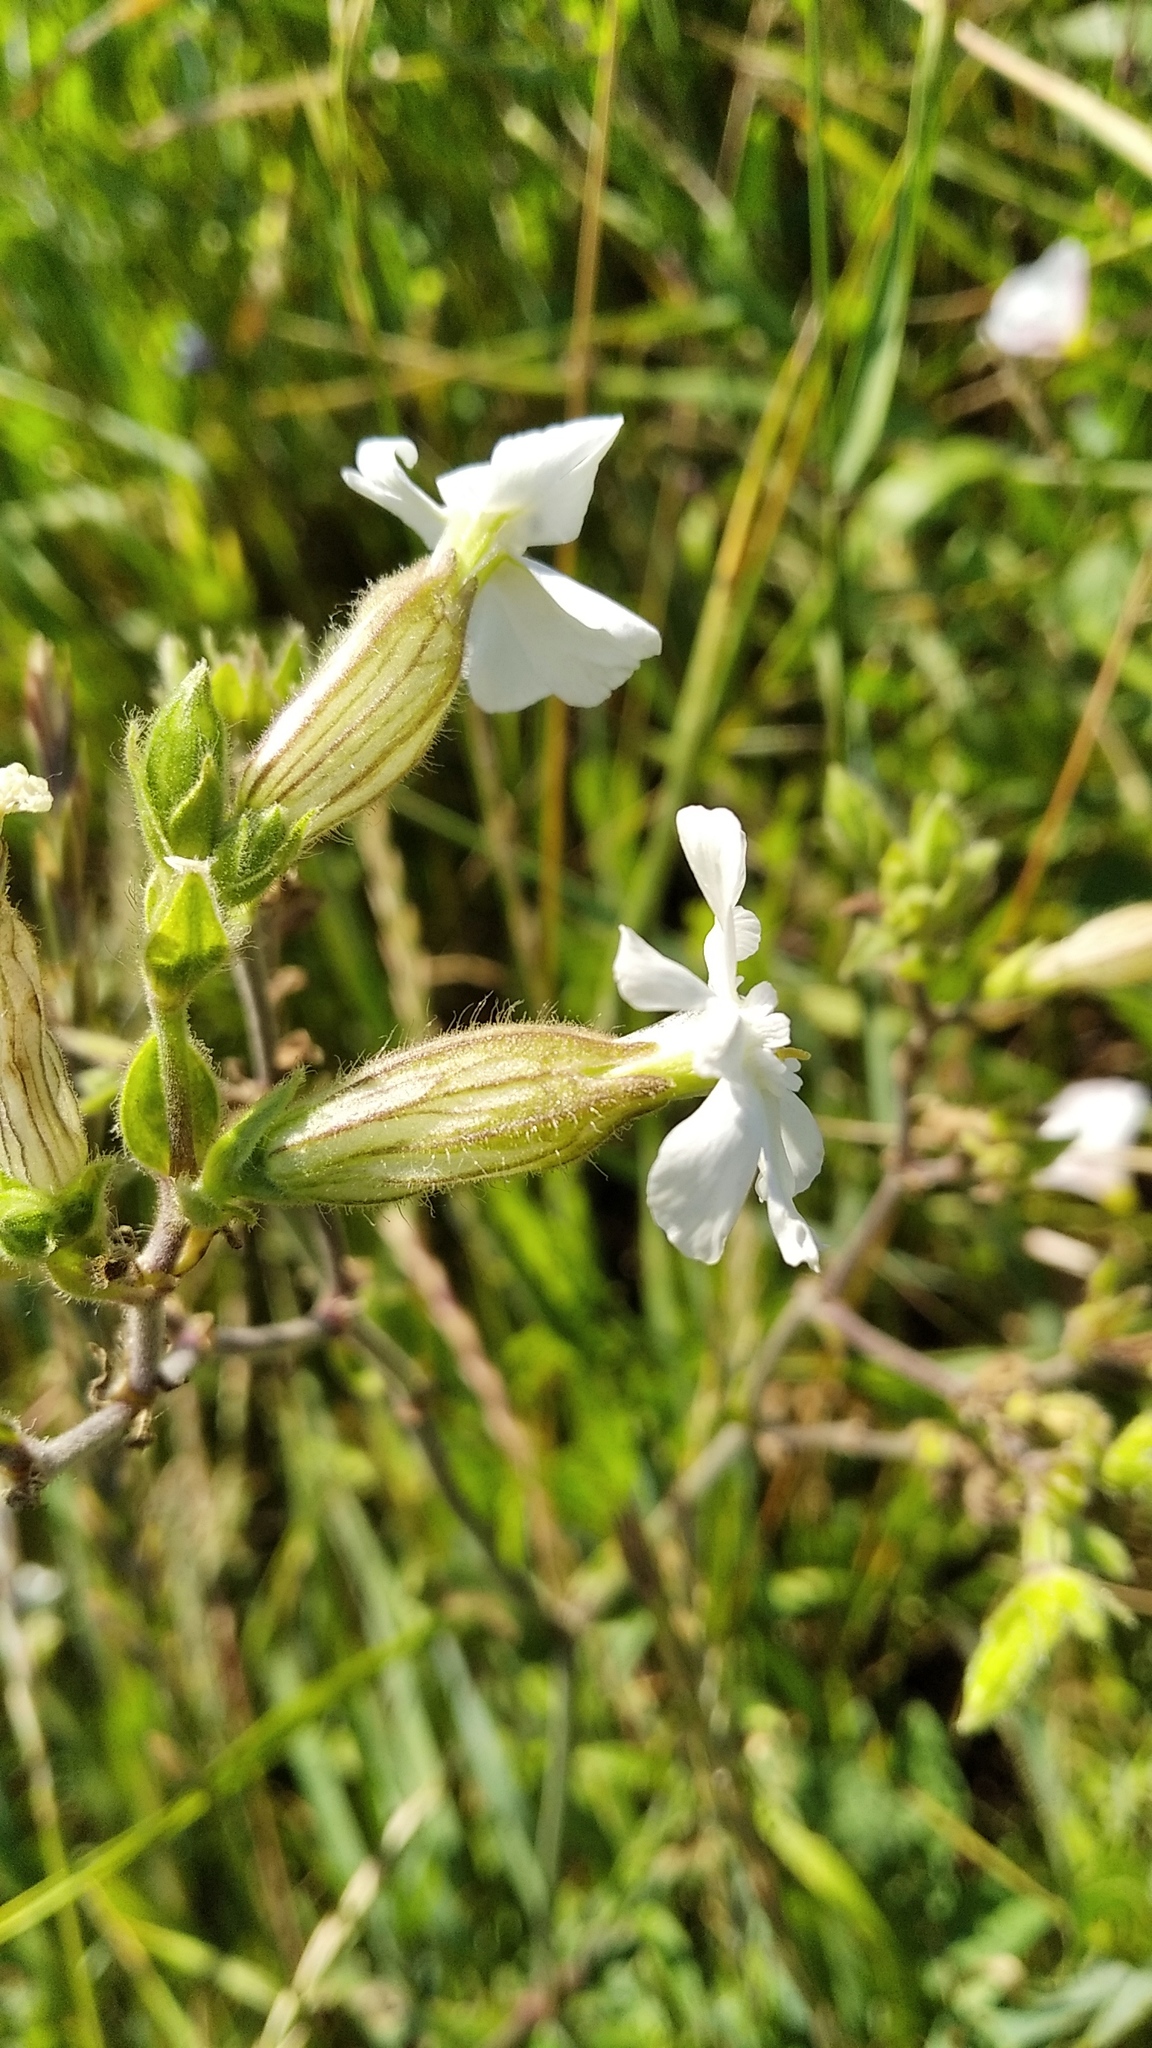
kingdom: Plantae
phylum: Tracheophyta
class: Magnoliopsida
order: Caryophyllales
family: Caryophyllaceae
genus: Silene
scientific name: Silene latifolia
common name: White campion
